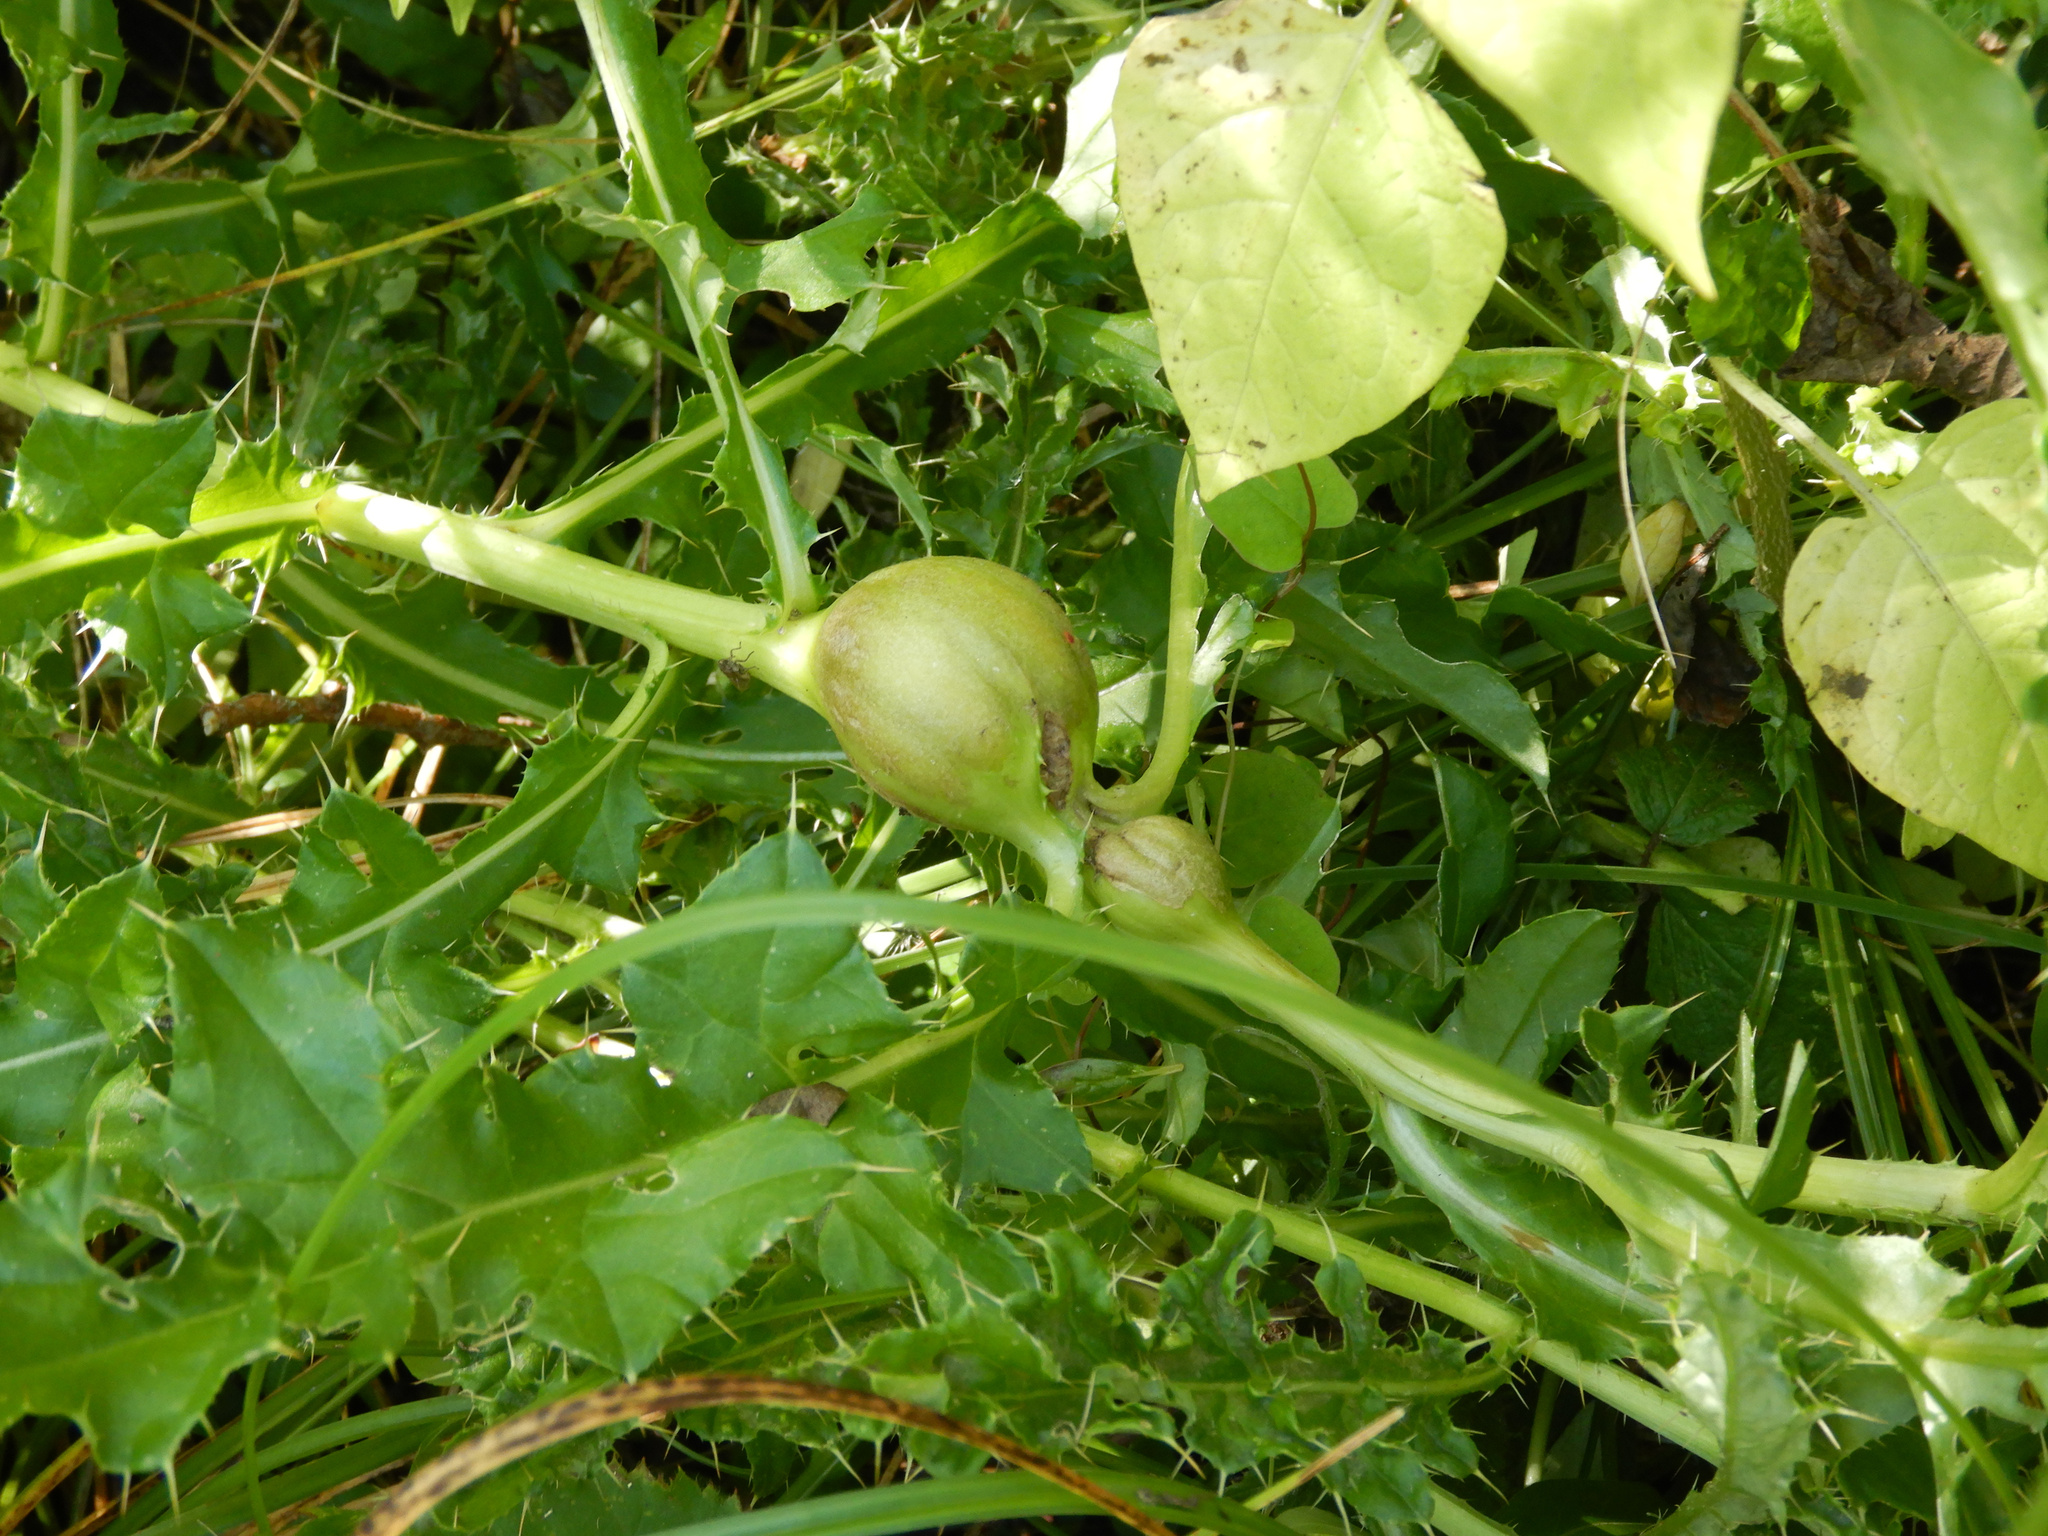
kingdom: Animalia
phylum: Arthropoda
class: Insecta
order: Diptera
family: Tephritidae
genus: Urophora
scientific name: Urophora cardui
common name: Fruit fly
